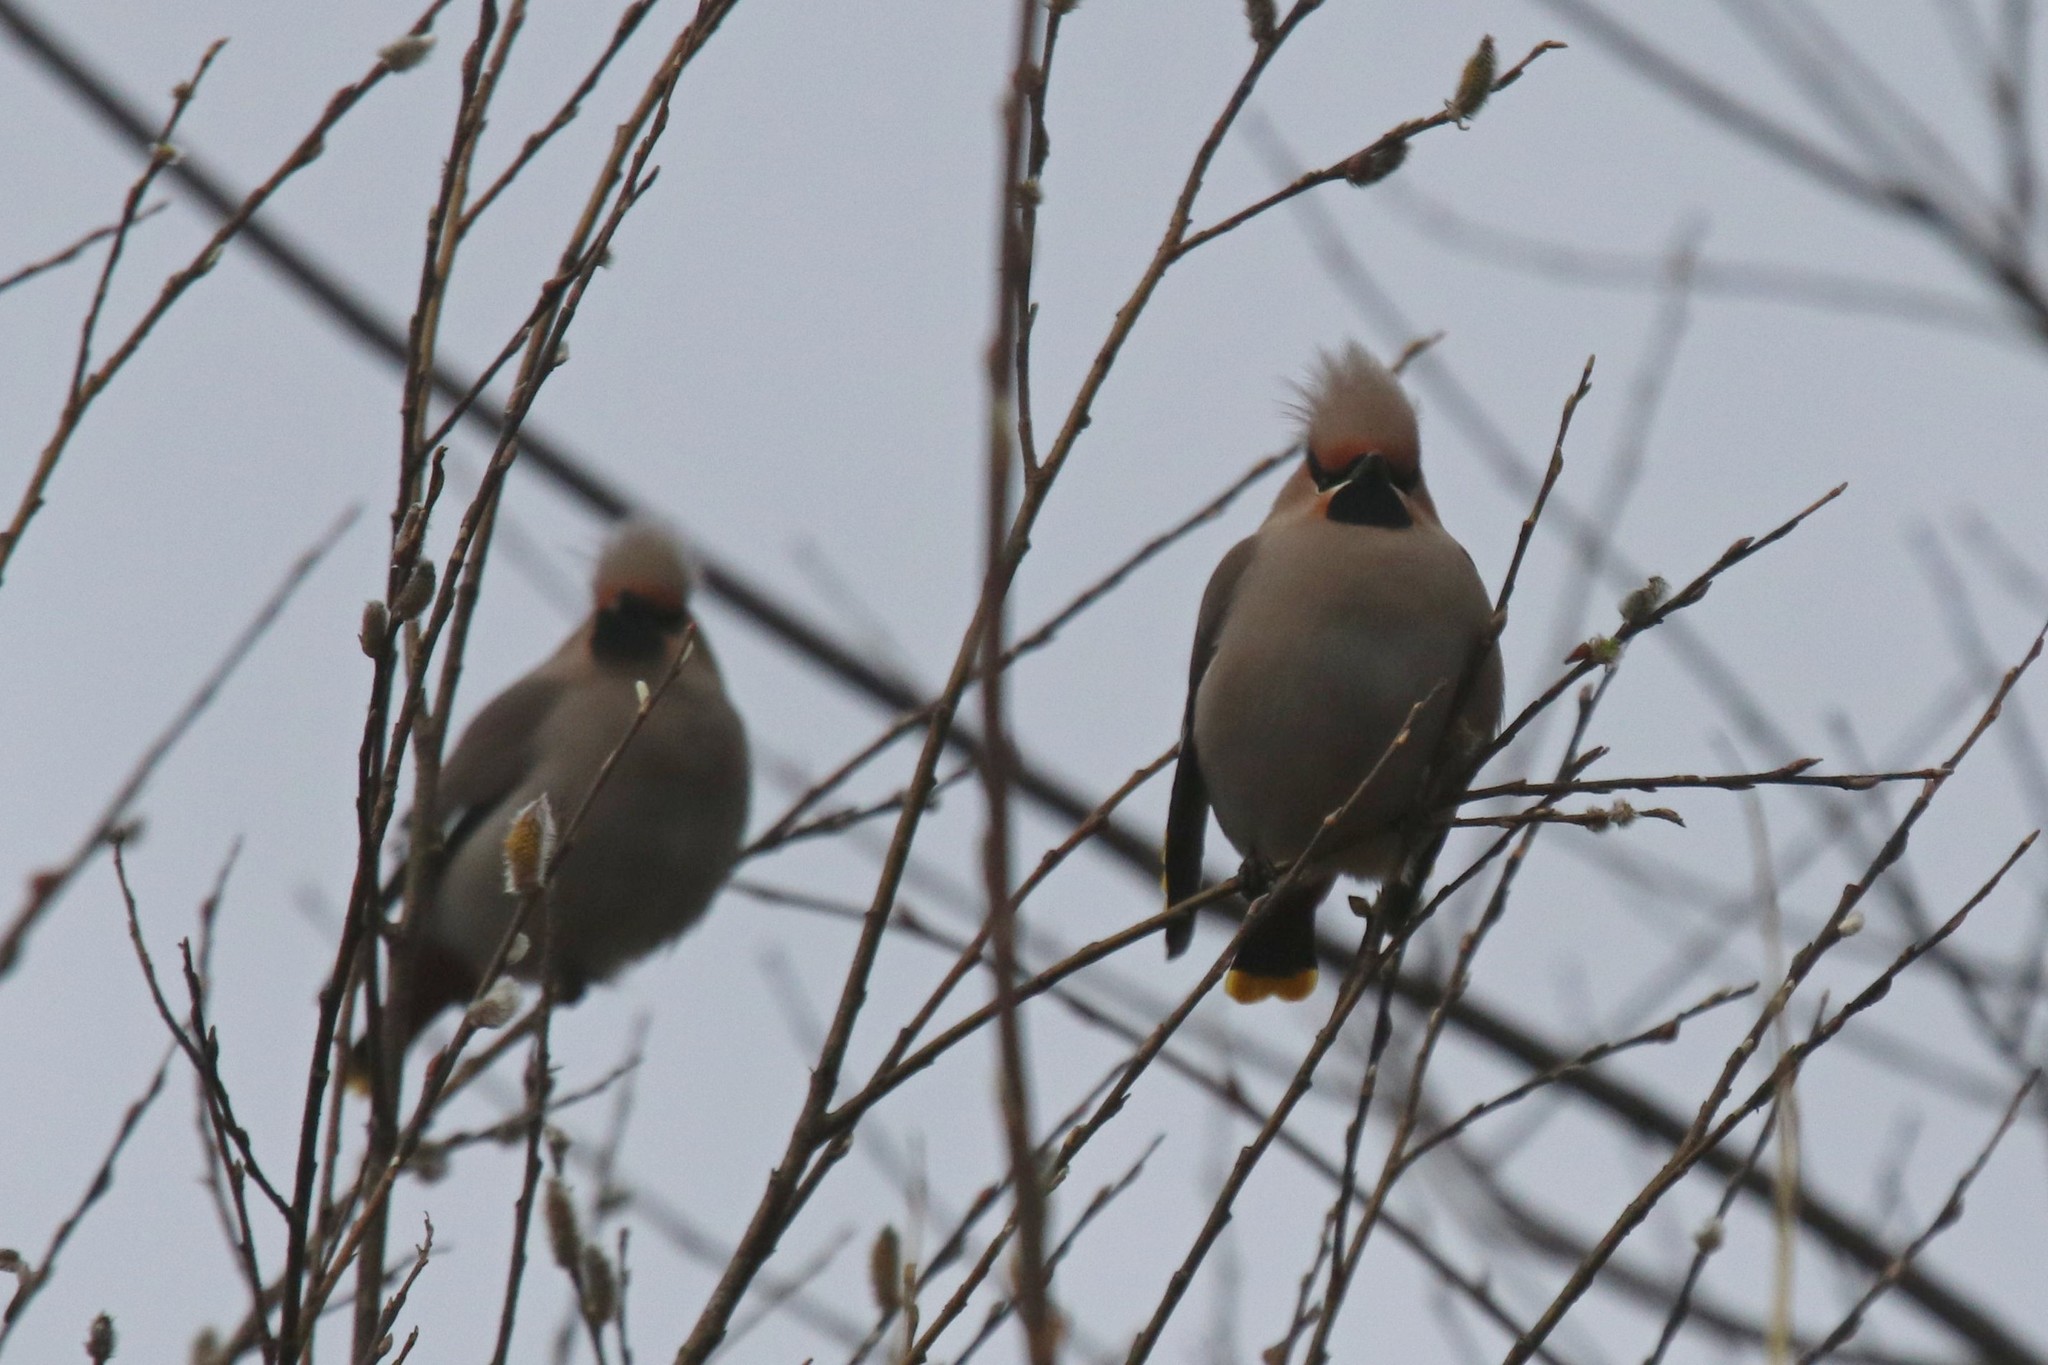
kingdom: Animalia
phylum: Chordata
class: Aves
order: Passeriformes
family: Bombycillidae
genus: Bombycilla
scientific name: Bombycilla garrulus
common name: Bohemian waxwing
